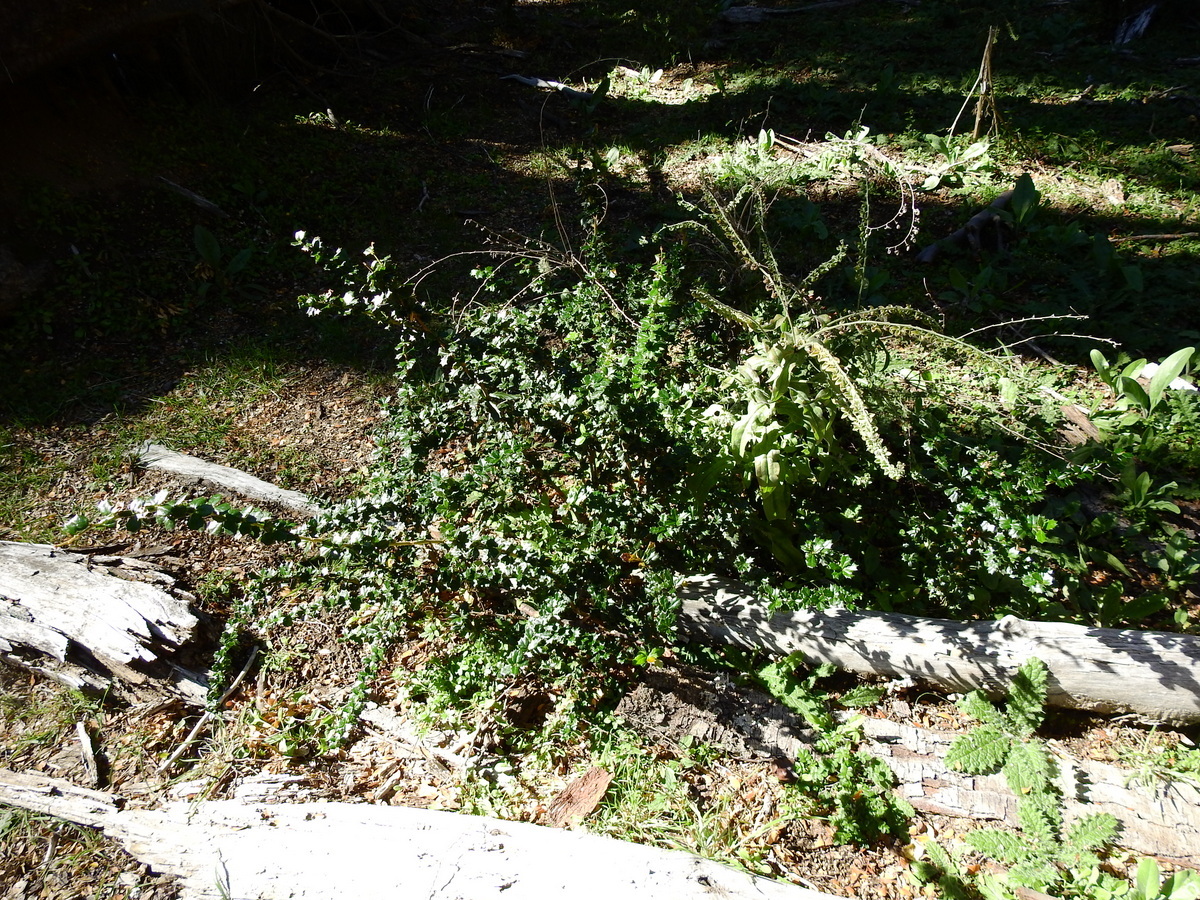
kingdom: Plantae
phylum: Tracheophyta
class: Magnoliopsida
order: Ranunculales
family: Berberidaceae
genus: Berberis
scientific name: Berberis darwinii
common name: Darwin's barberry
